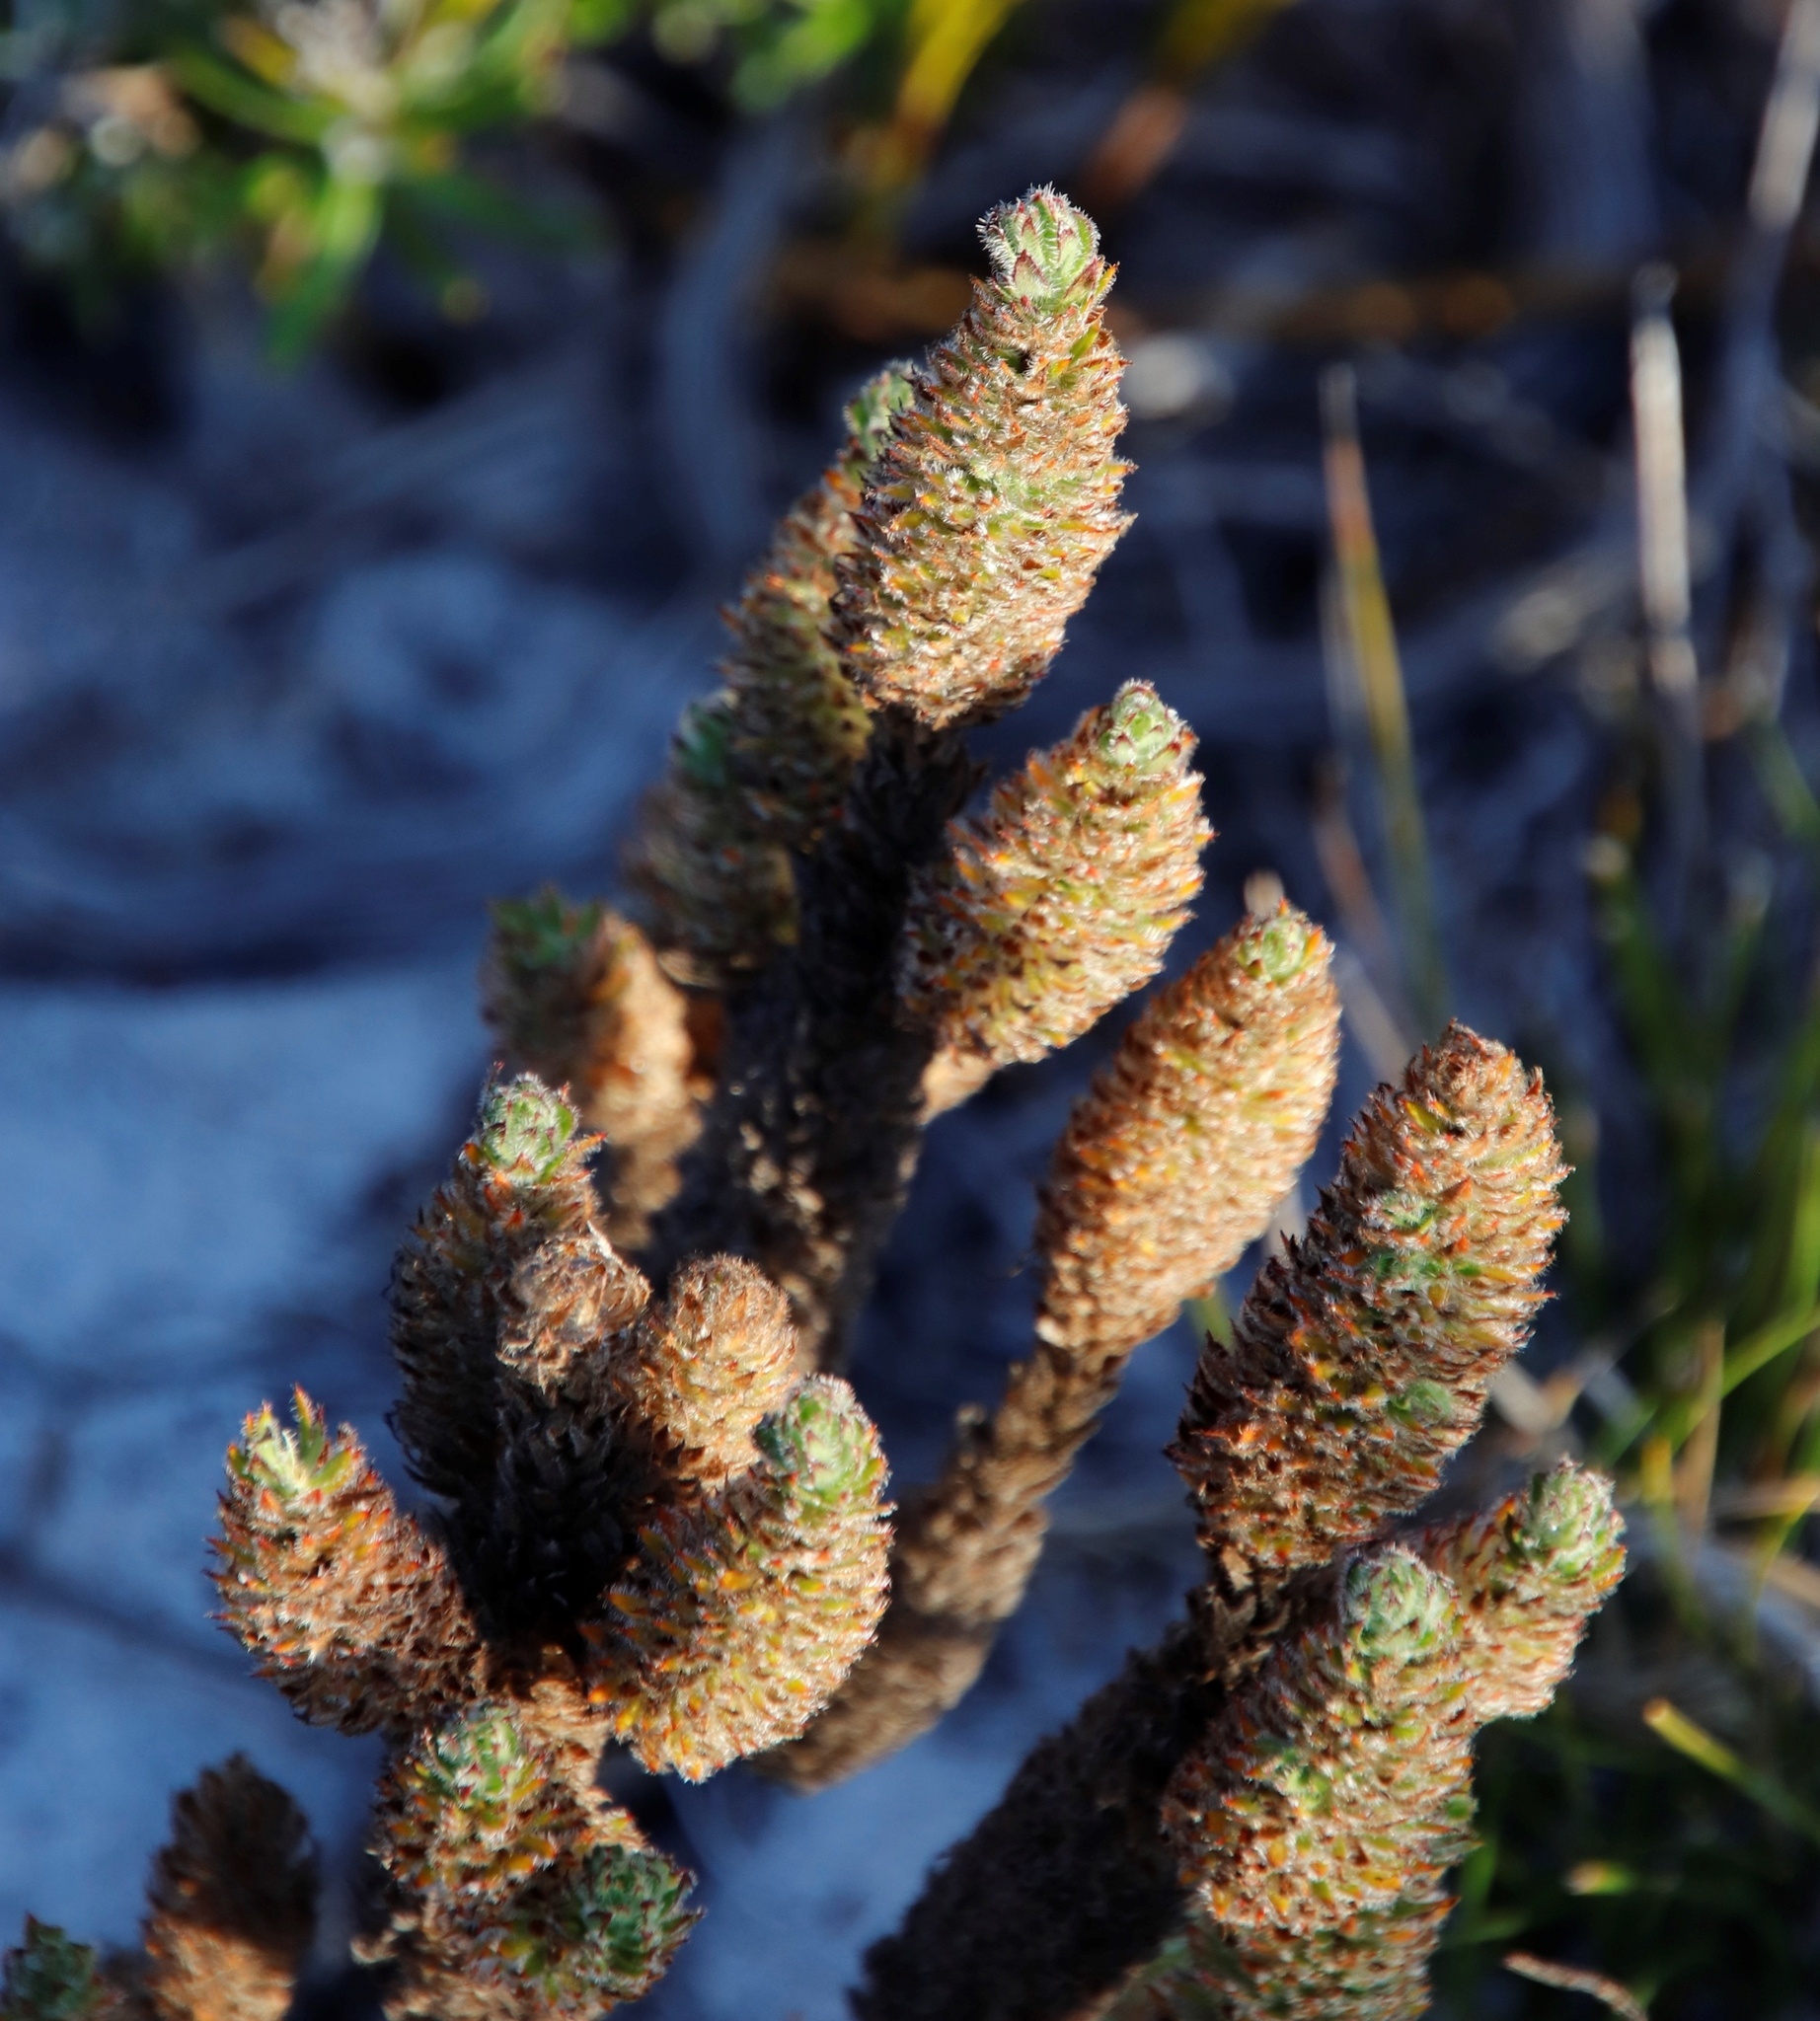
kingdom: Plantae
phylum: Tracheophyta
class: Magnoliopsida
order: Gentianales
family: Rubiaceae
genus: Anthospermum
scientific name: Anthospermum bergianum
